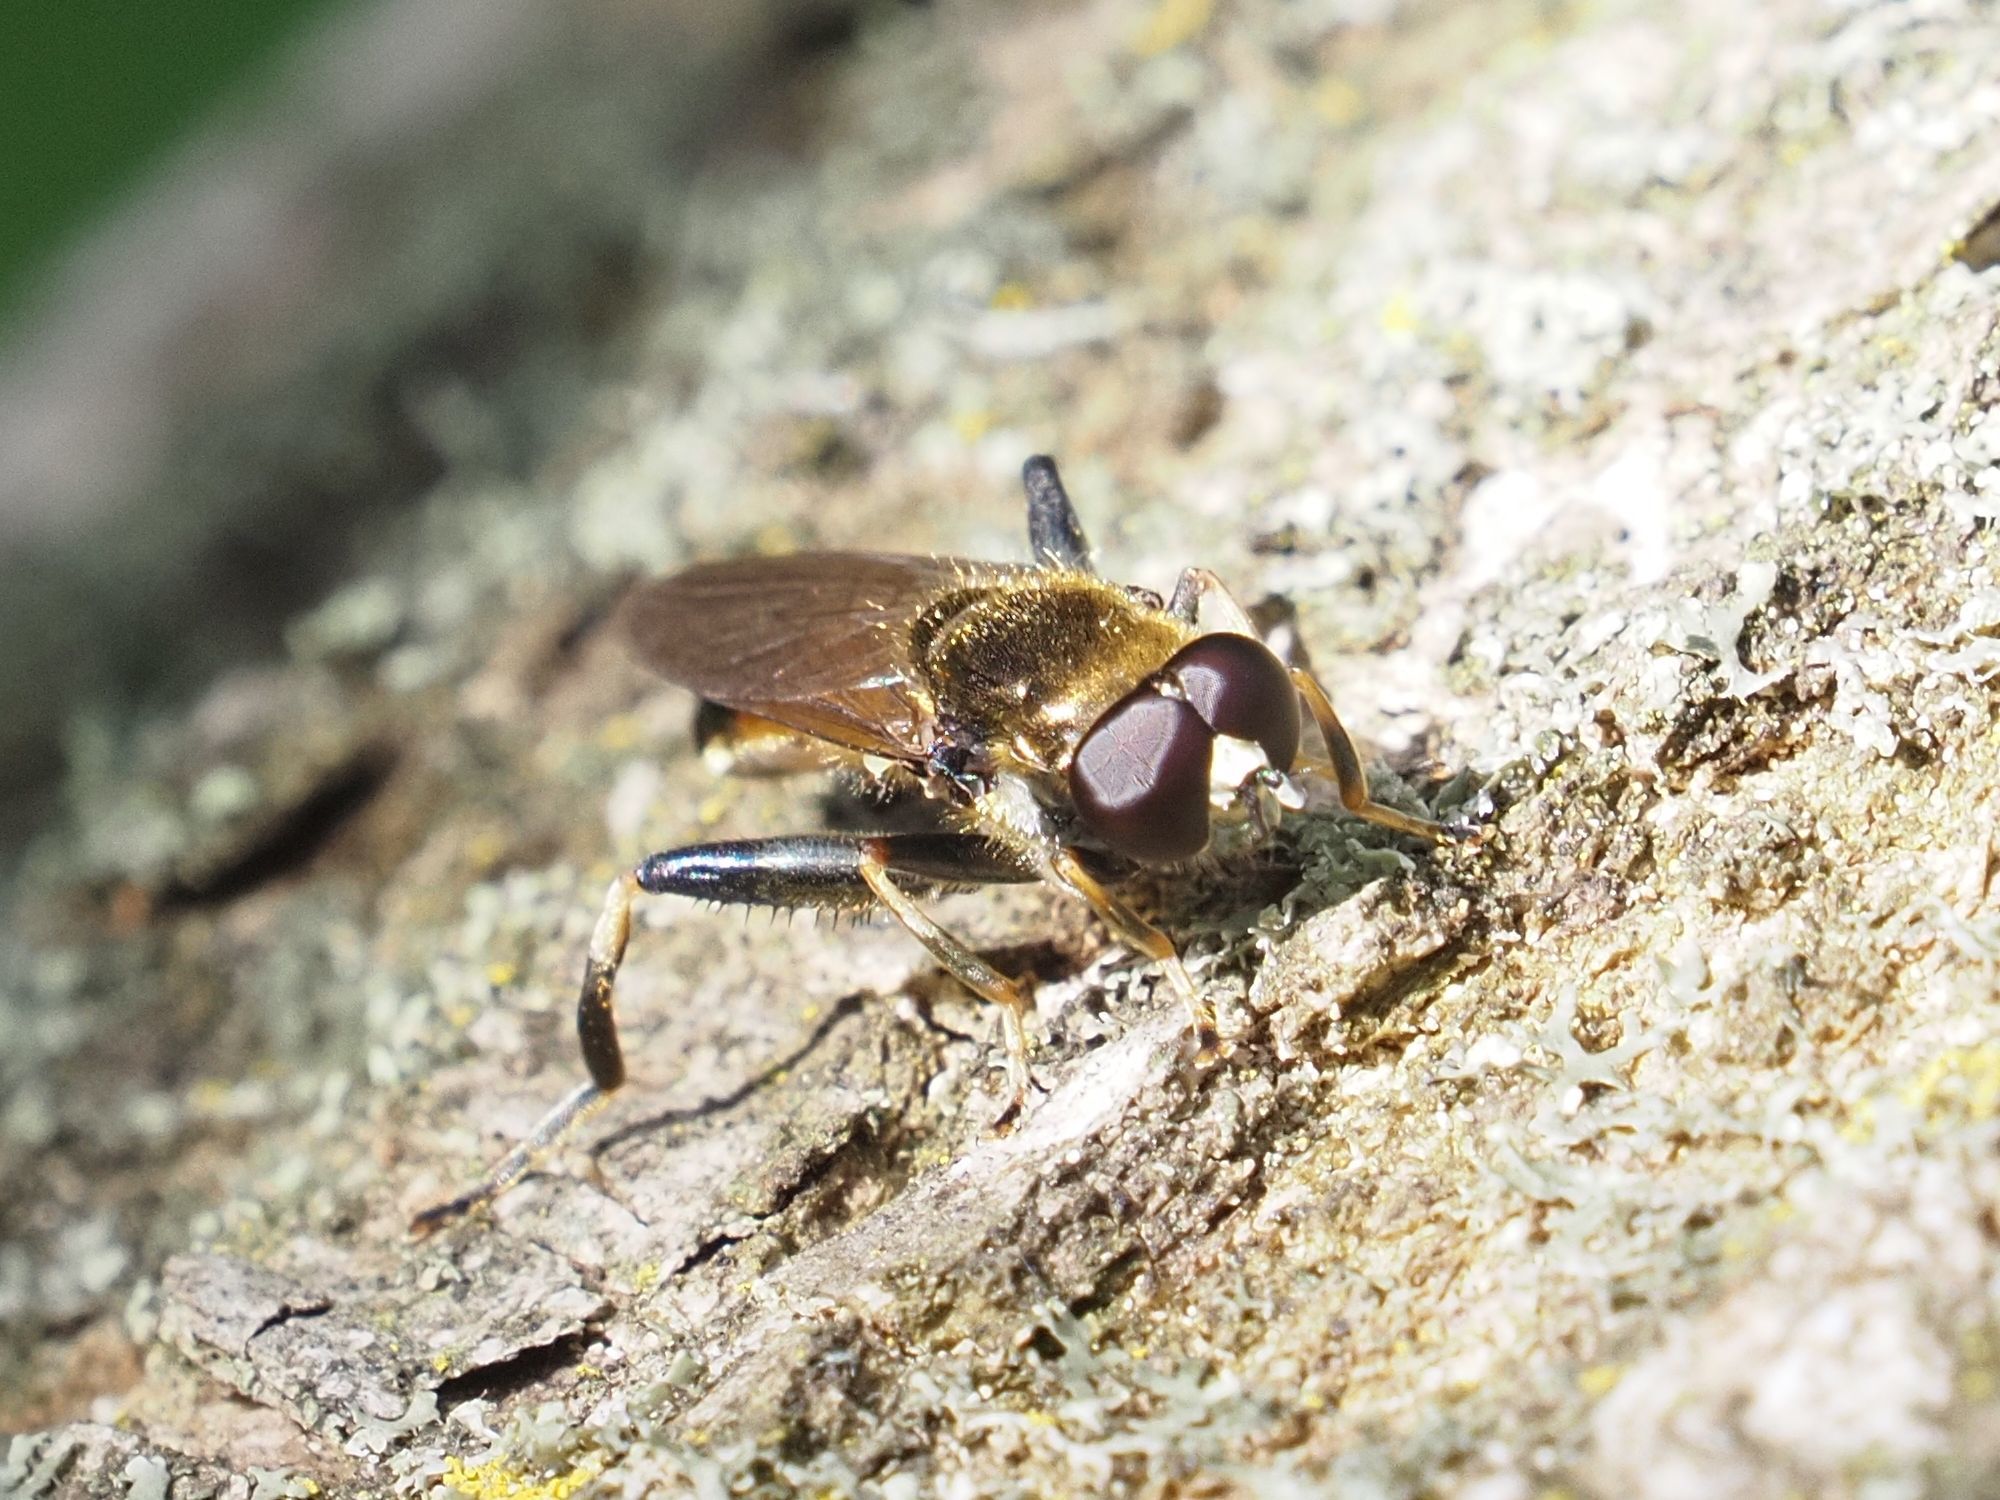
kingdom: Animalia
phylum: Arthropoda
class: Insecta
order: Diptera
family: Syrphidae
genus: Xylota
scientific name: Xylota segnis
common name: Brown-toed forest fly
